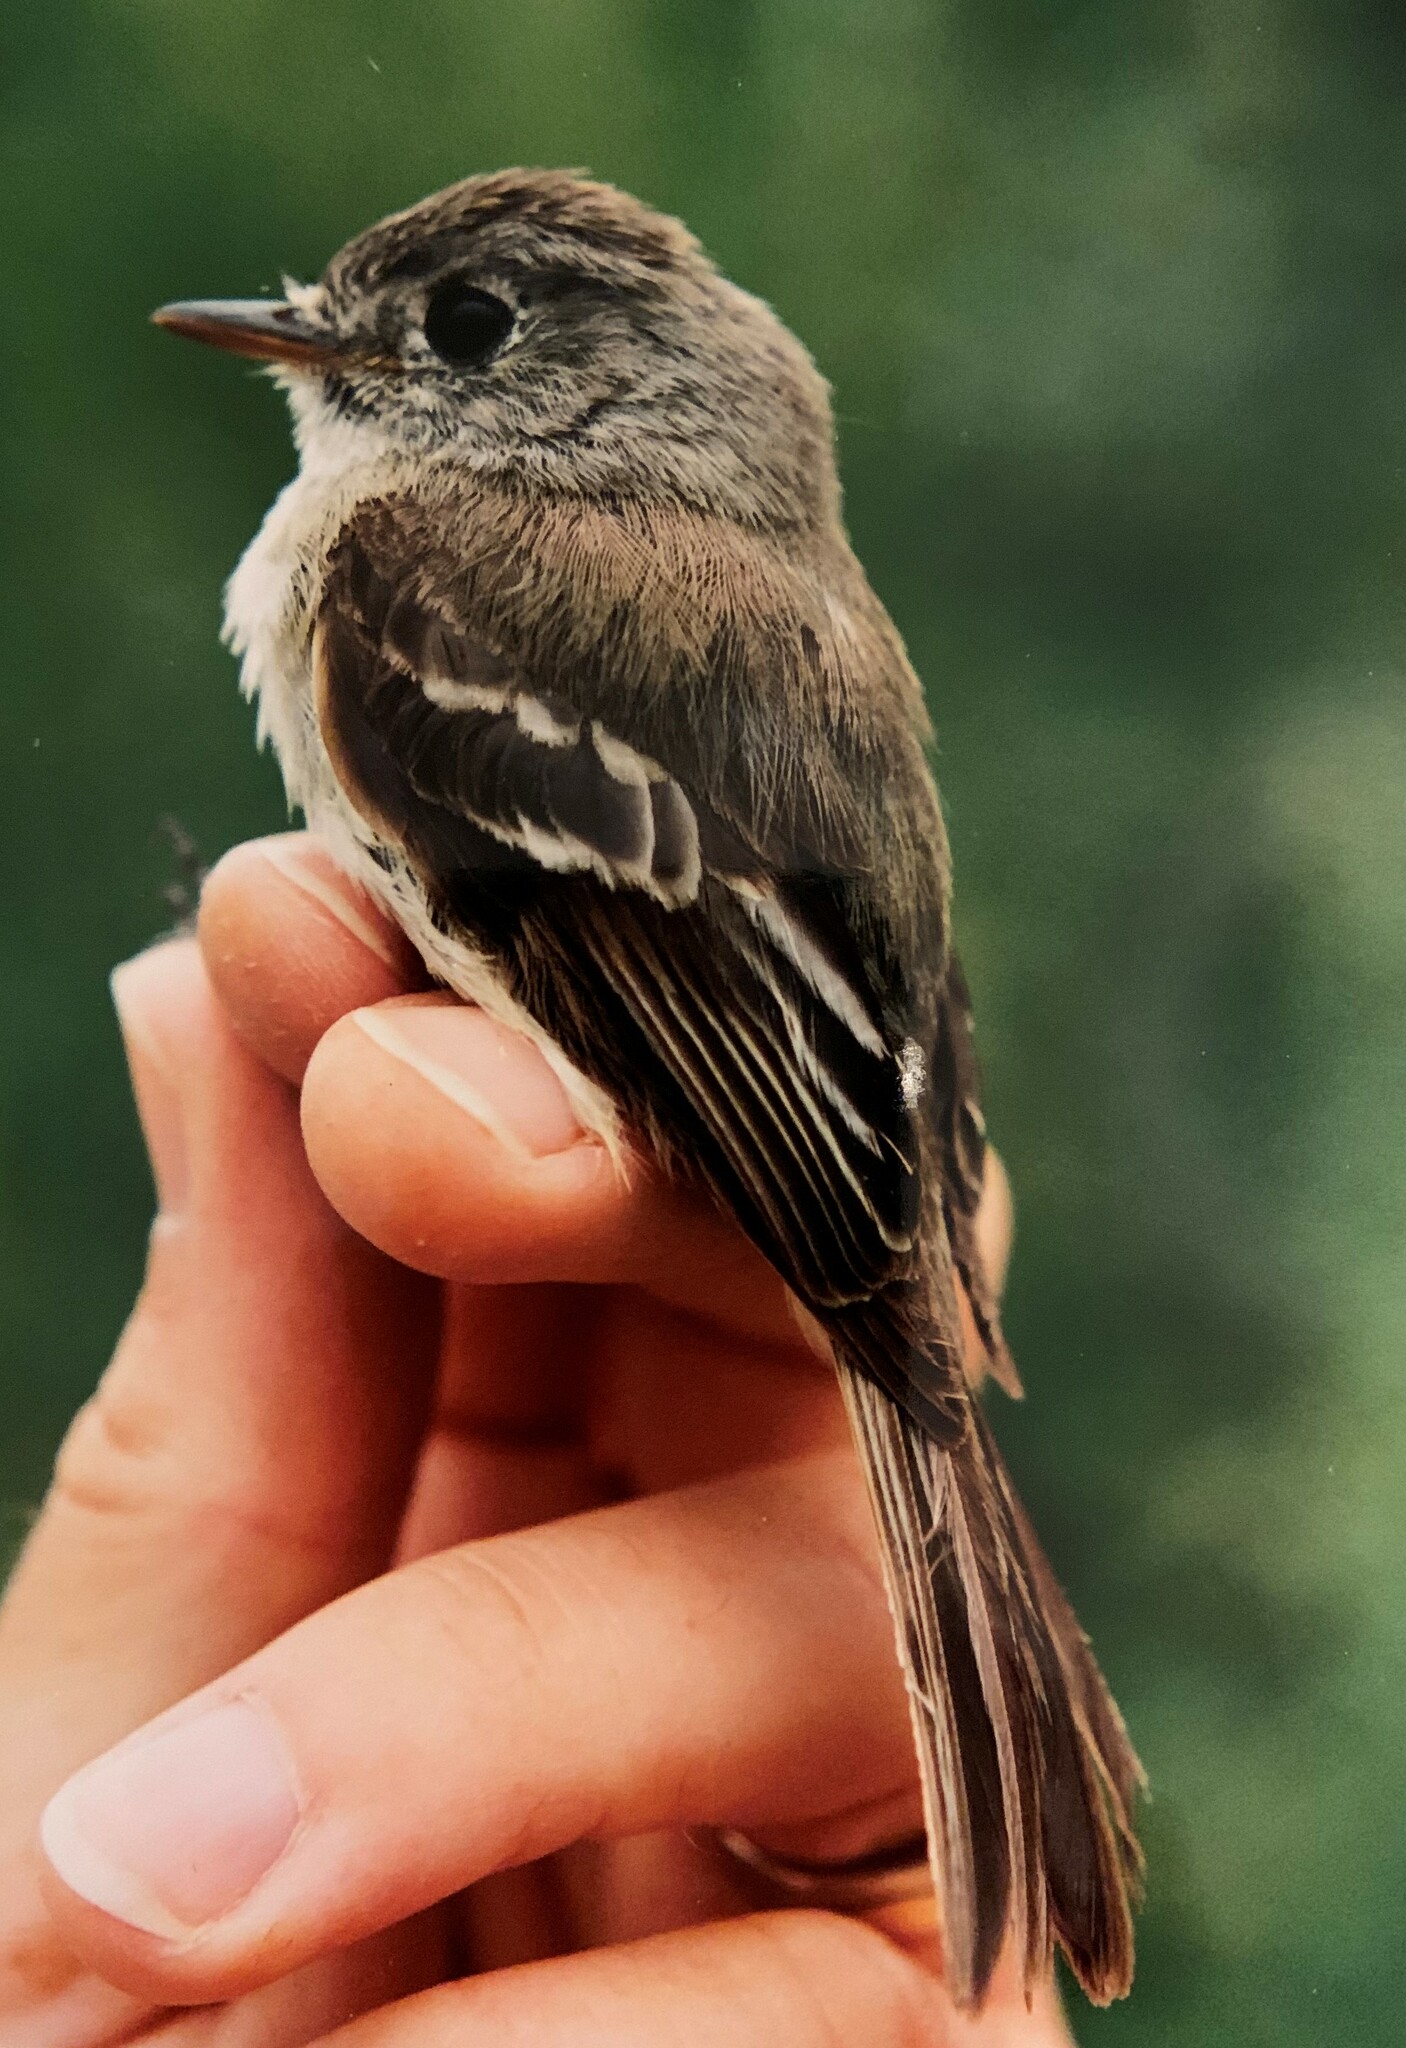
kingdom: Animalia
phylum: Chordata
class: Aves
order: Passeriformes
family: Tyrannidae
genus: Empidonax
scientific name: Empidonax oberholseri
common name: Dusky flycatcher
